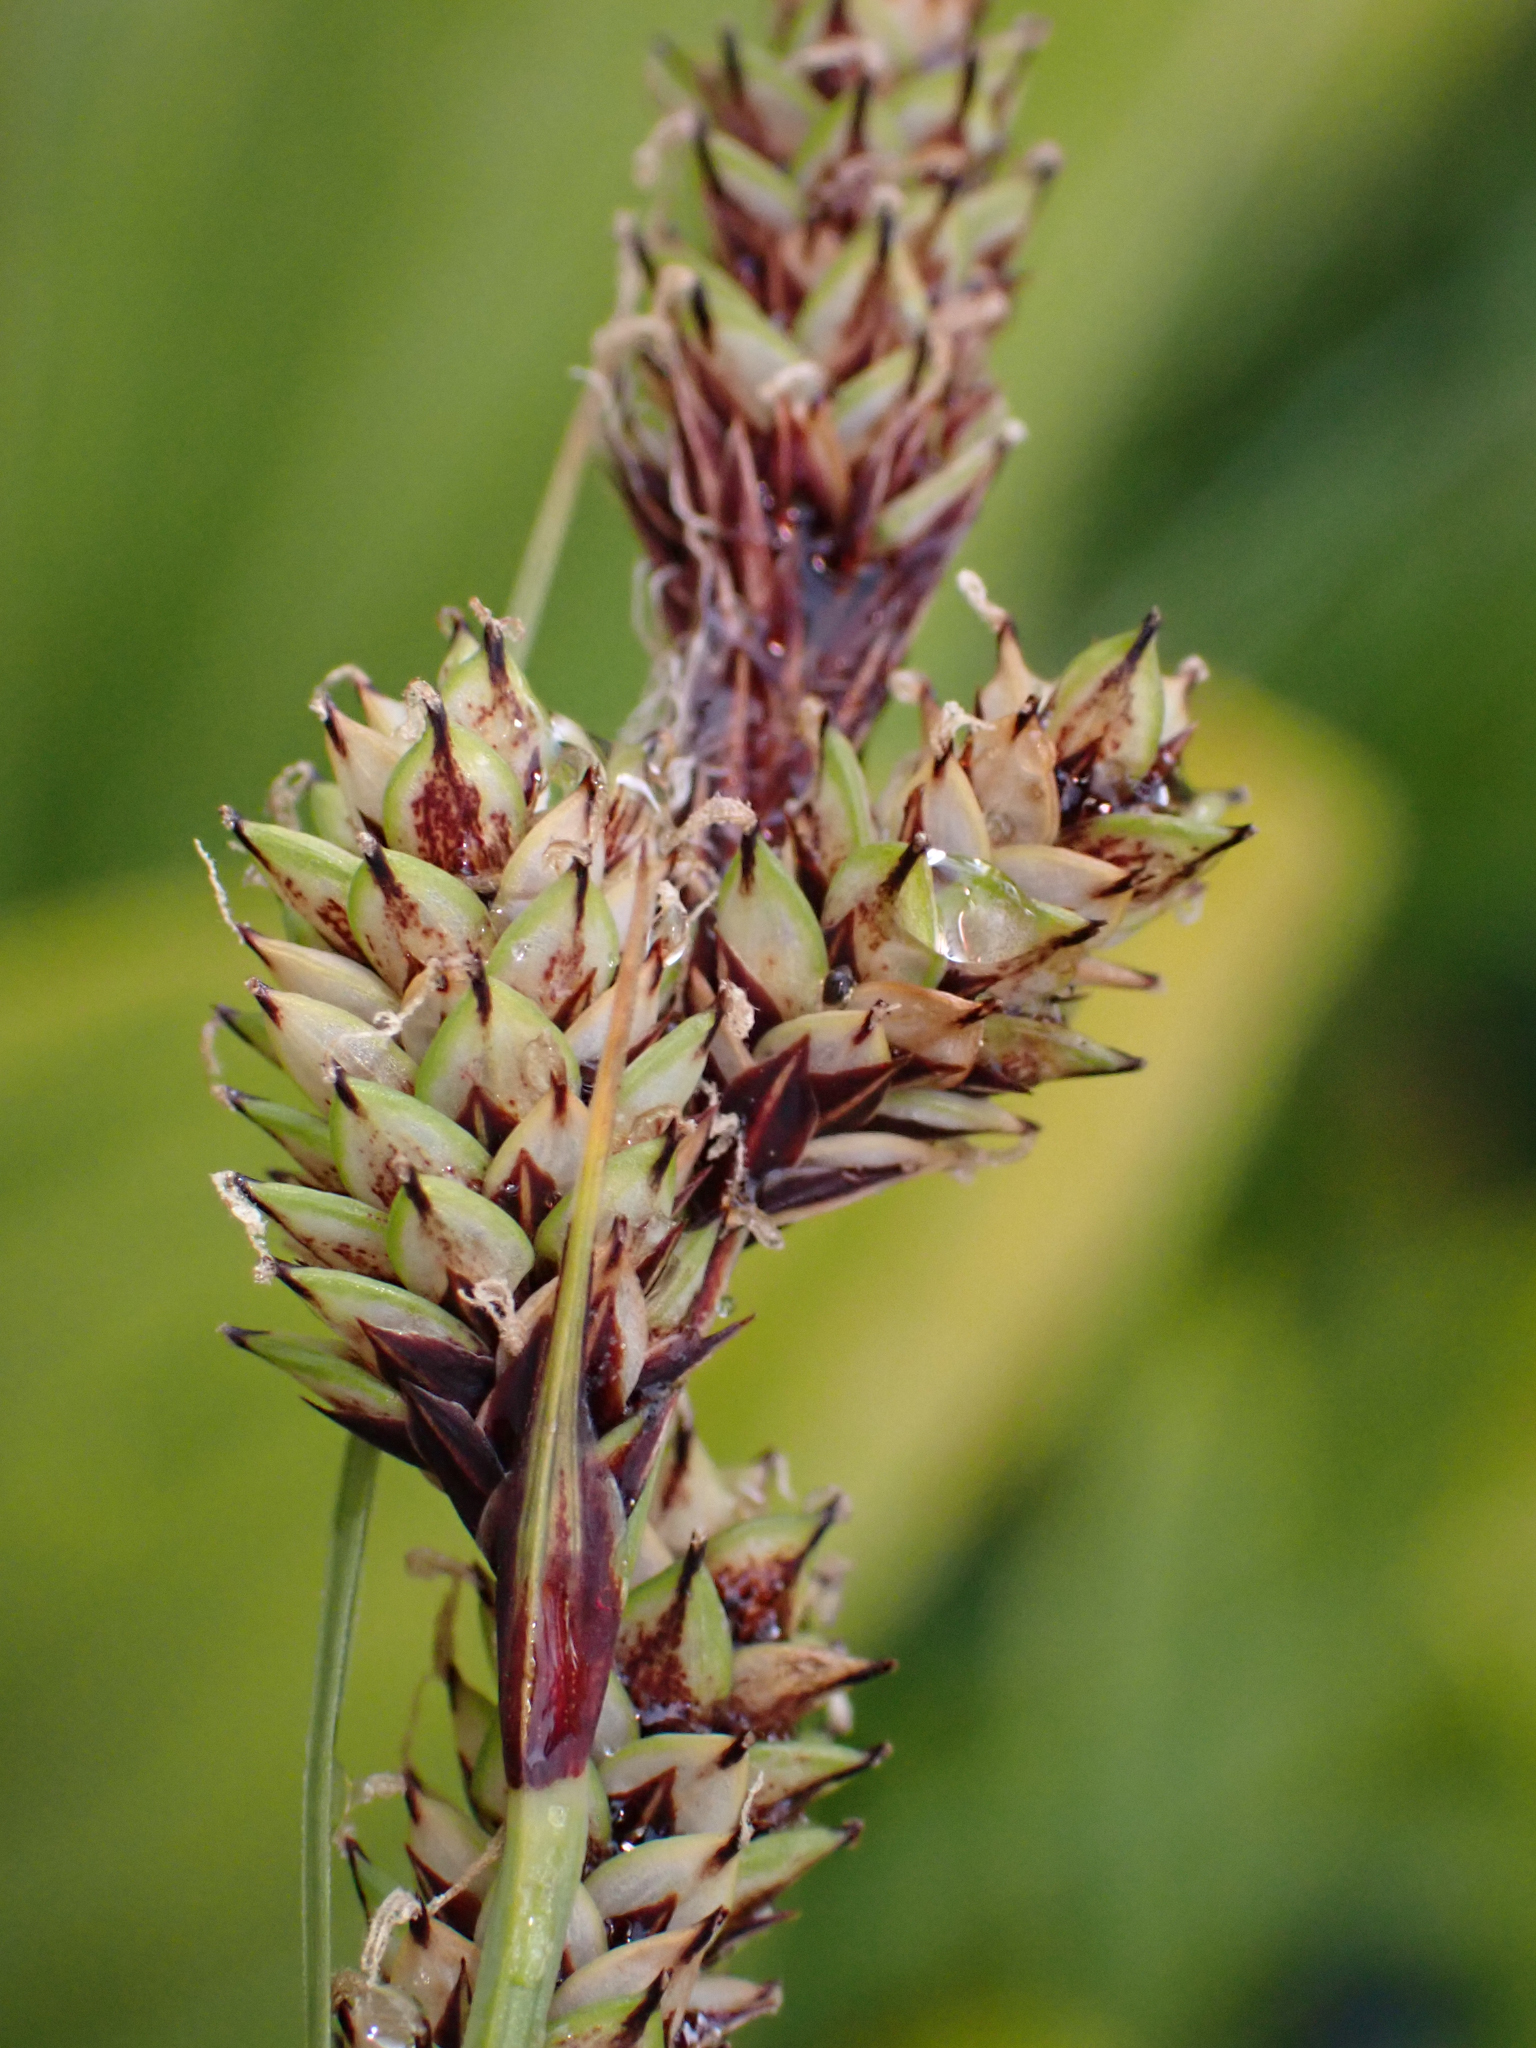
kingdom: Plantae
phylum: Tracheophyta
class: Liliopsida
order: Poales
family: Cyperaceae
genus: Carex
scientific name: Carex heteroneura
